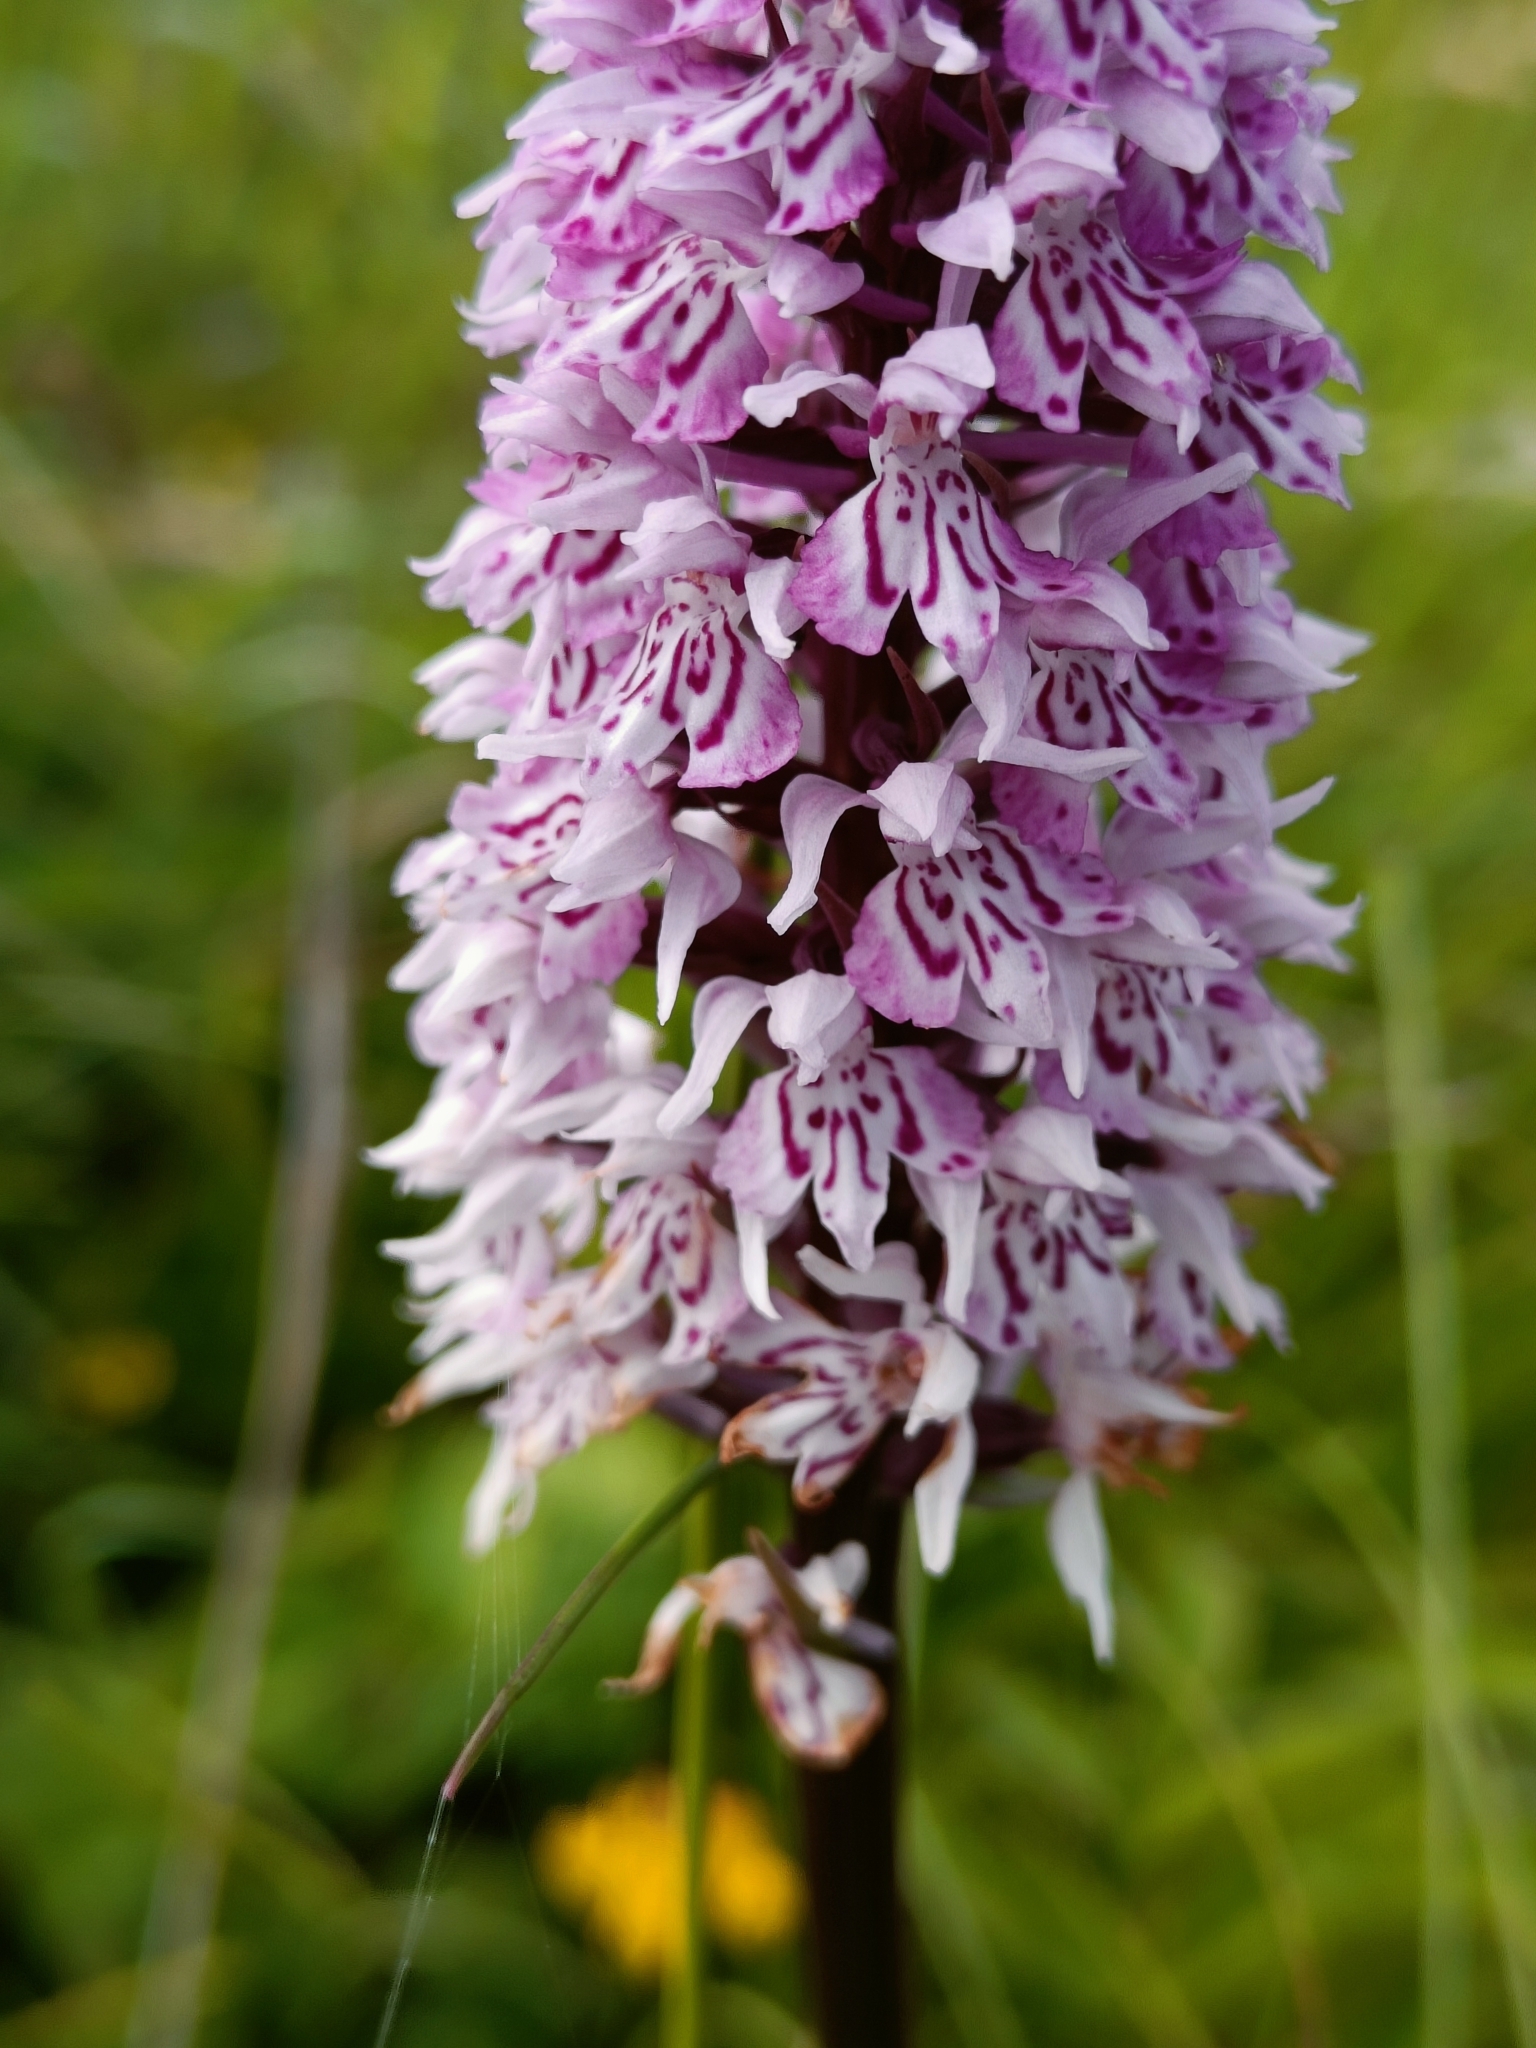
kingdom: Plantae
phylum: Tracheophyta
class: Liliopsida
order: Asparagales
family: Orchidaceae
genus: Dactylorhiza
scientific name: Dactylorhiza maculata
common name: Heath spotted-orchid
